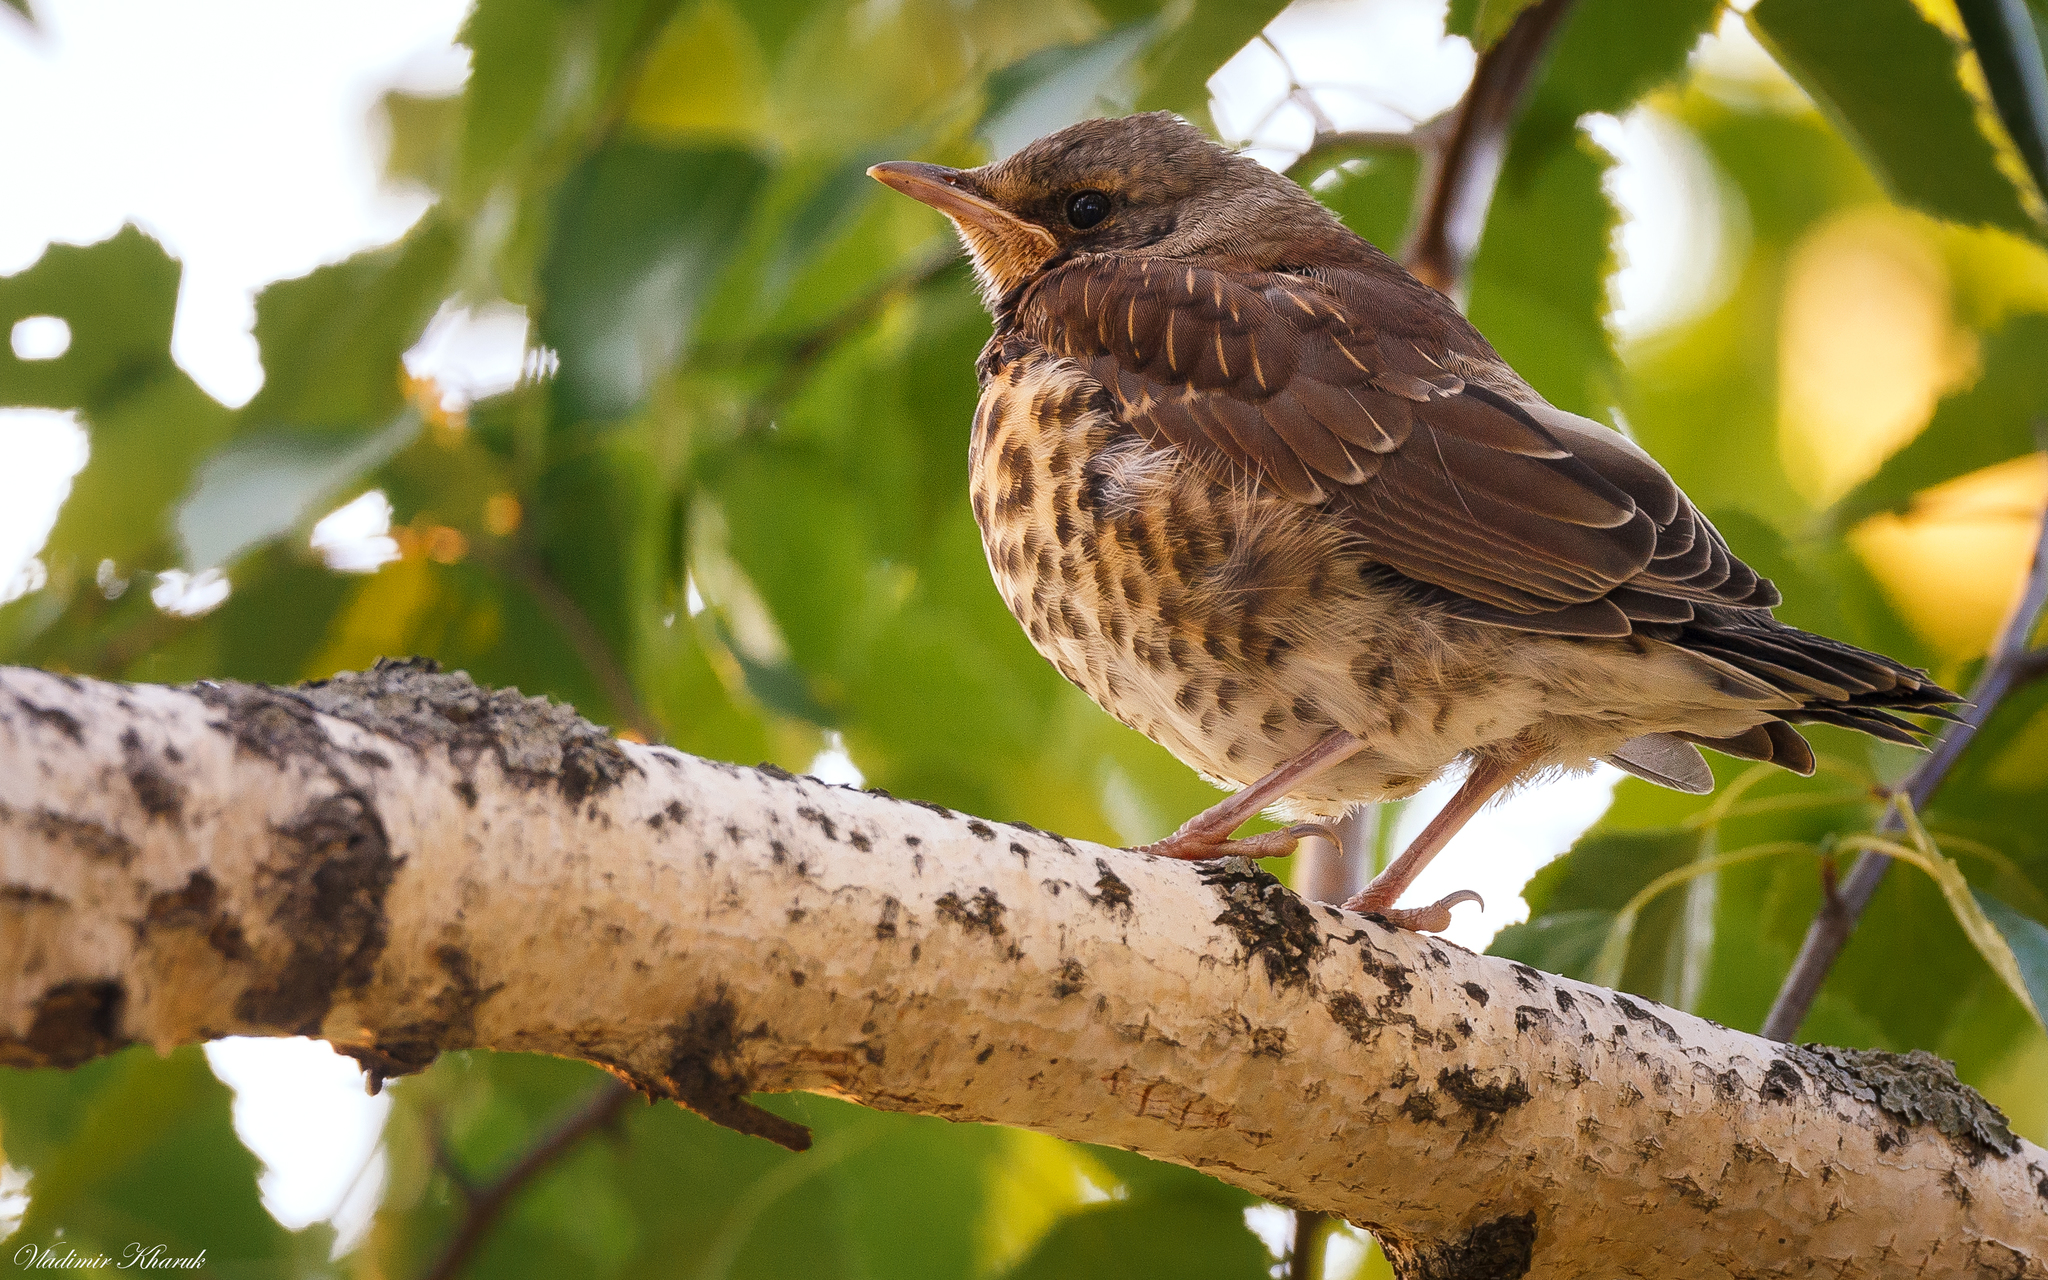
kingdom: Animalia
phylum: Chordata
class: Aves
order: Passeriformes
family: Turdidae
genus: Turdus
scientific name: Turdus pilaris
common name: Fieldfare
